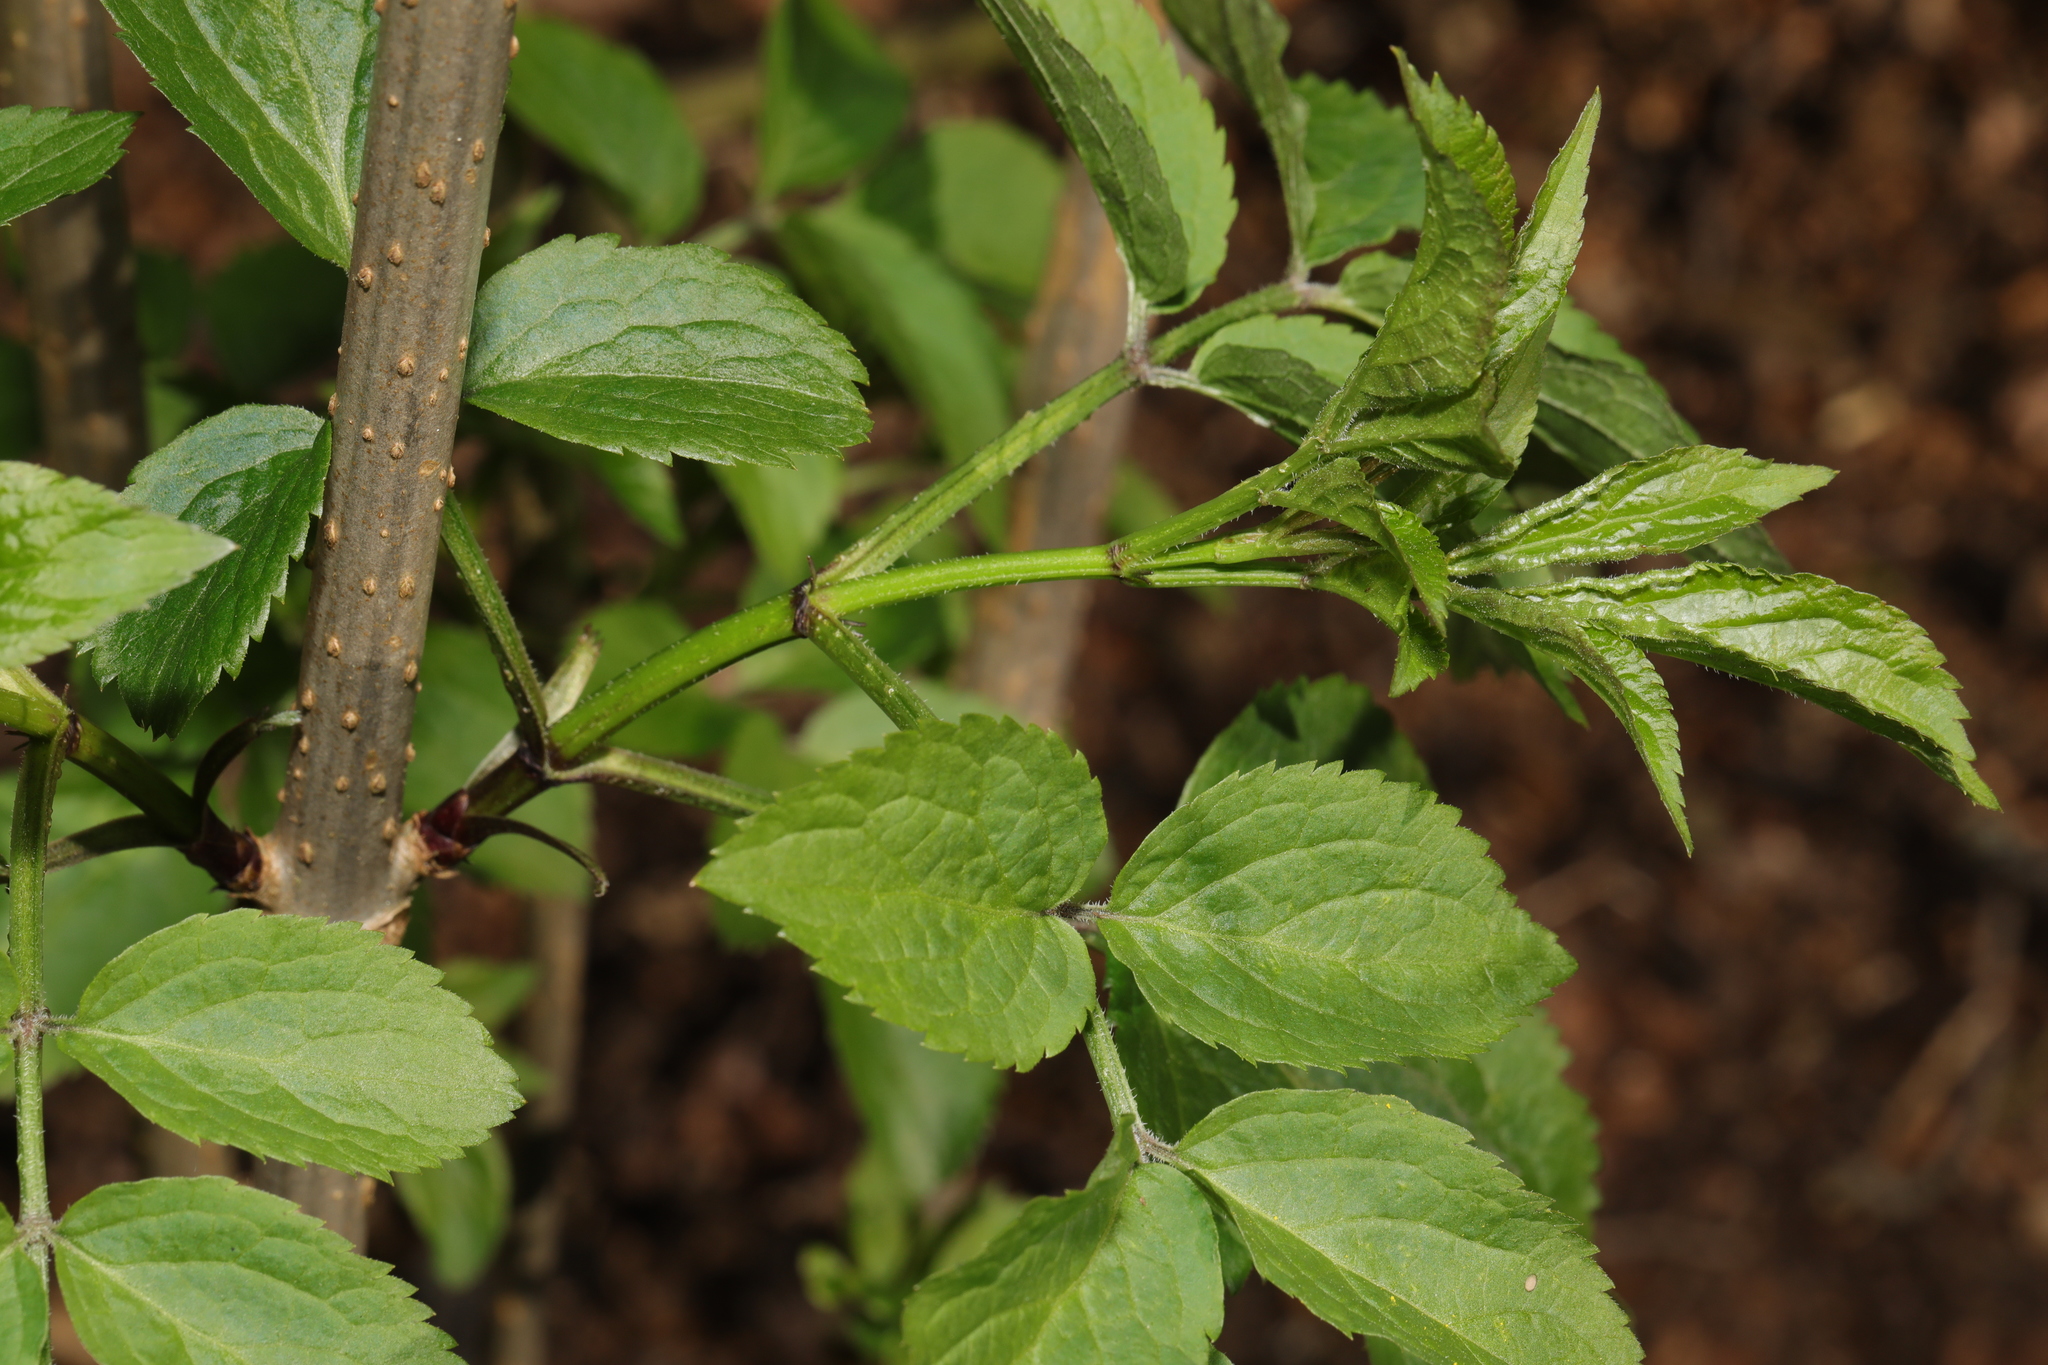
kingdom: Plantae
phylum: Tracheophyta
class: Magnoliopsida
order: Dipsacales
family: Viburnaceae
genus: Sambucus
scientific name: Sambucus nigra
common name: Elder
